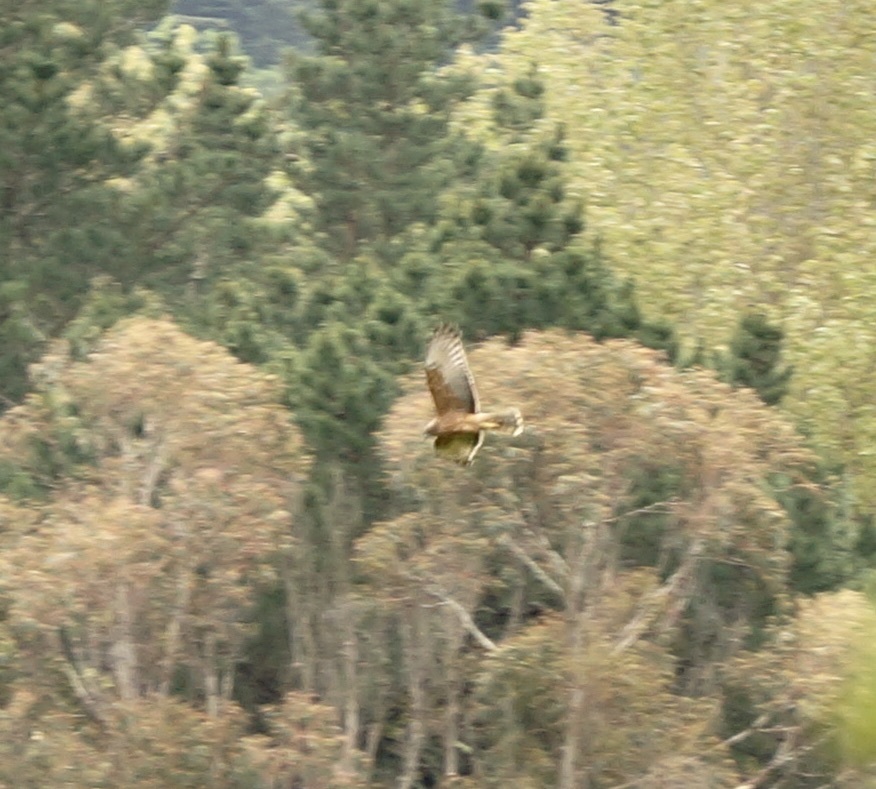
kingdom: Animalia
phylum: Chordata
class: Aves
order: Accipitriformes
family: Accipitridae
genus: Circus
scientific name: Circus approximans
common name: Swamp harrier
